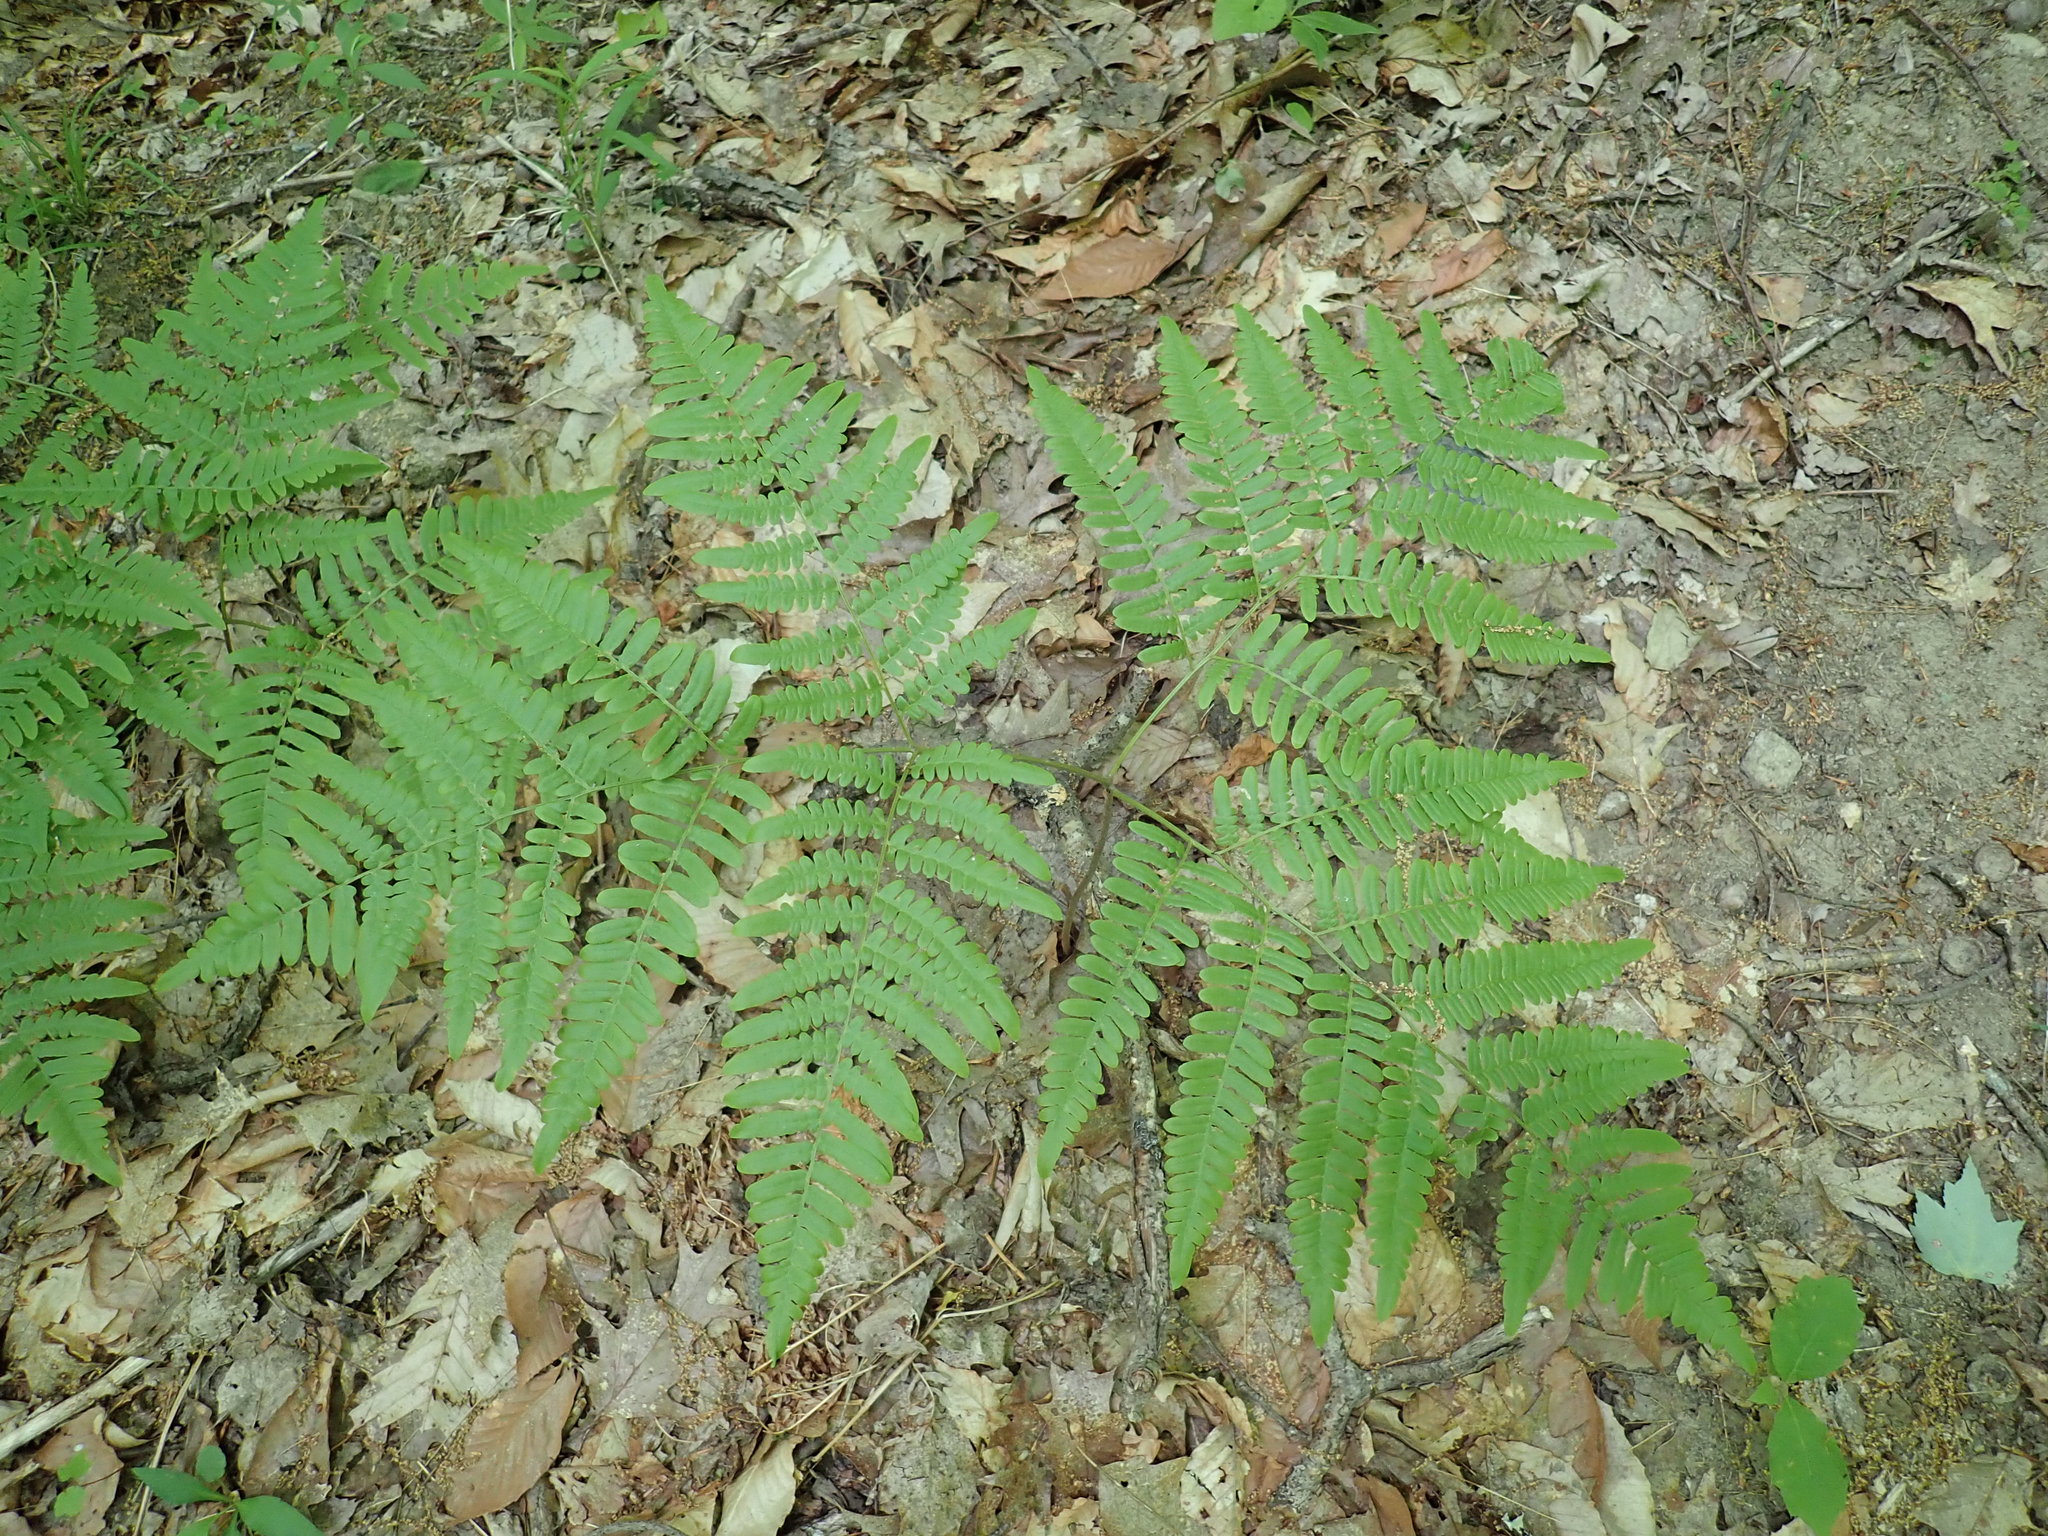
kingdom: Plantae
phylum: Tracheophyta
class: Polypodiopsida
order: Polypodiales
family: Dennstaedtiaceae
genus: Pteridium
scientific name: Pteridium aquilinum
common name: Bracken
